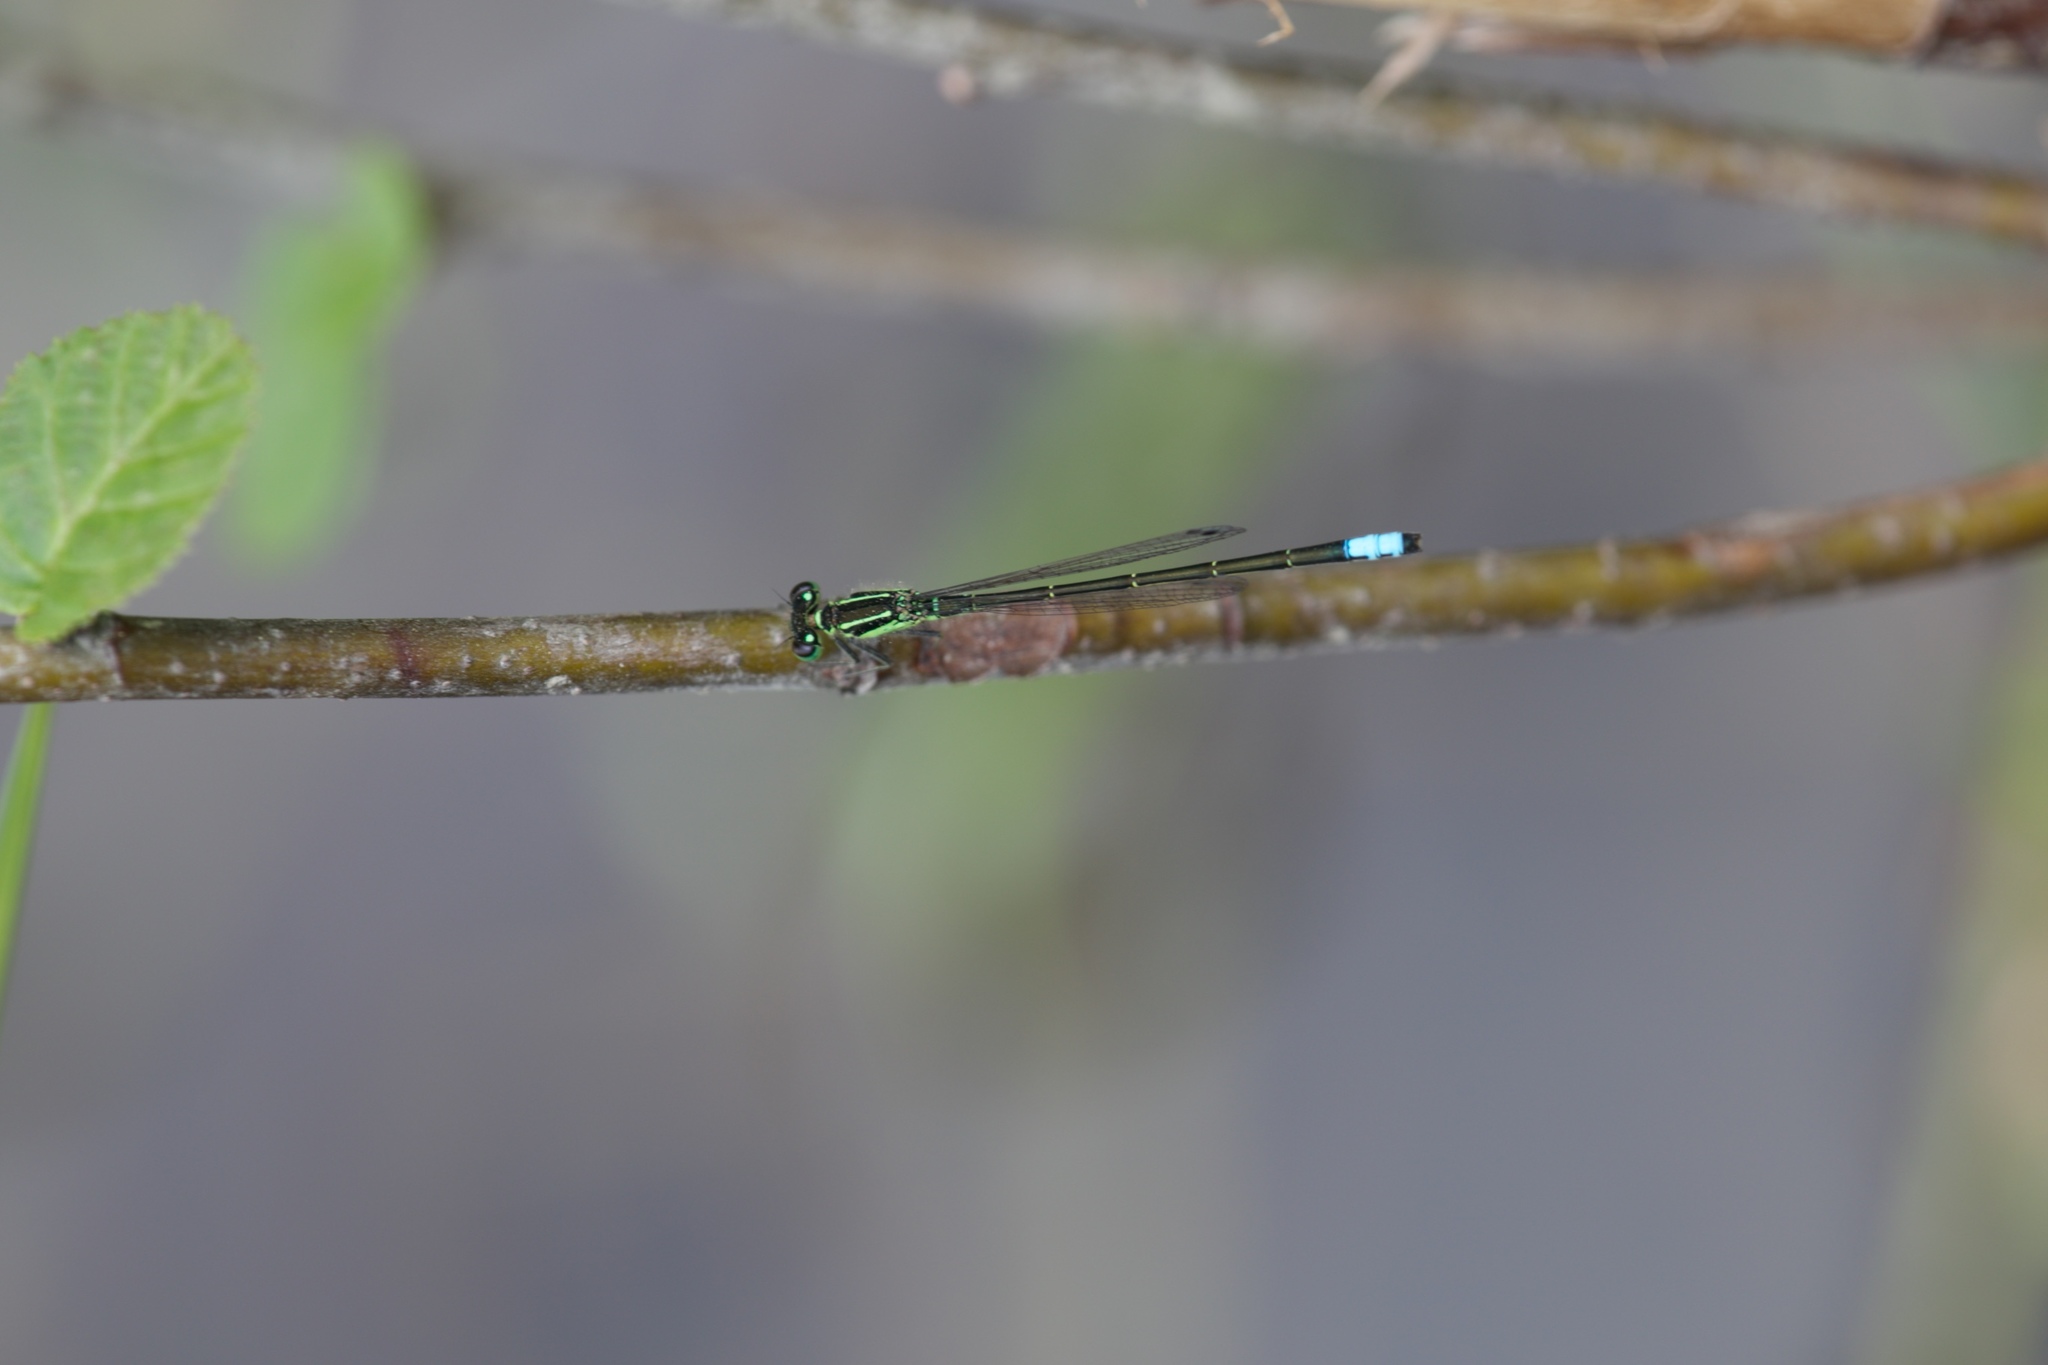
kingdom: Animalia
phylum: Arthropoda
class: Insecta
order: Odonata
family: Coenagrionidae
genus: Ischnura
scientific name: Ischnura verticalis
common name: Eastern forktail
